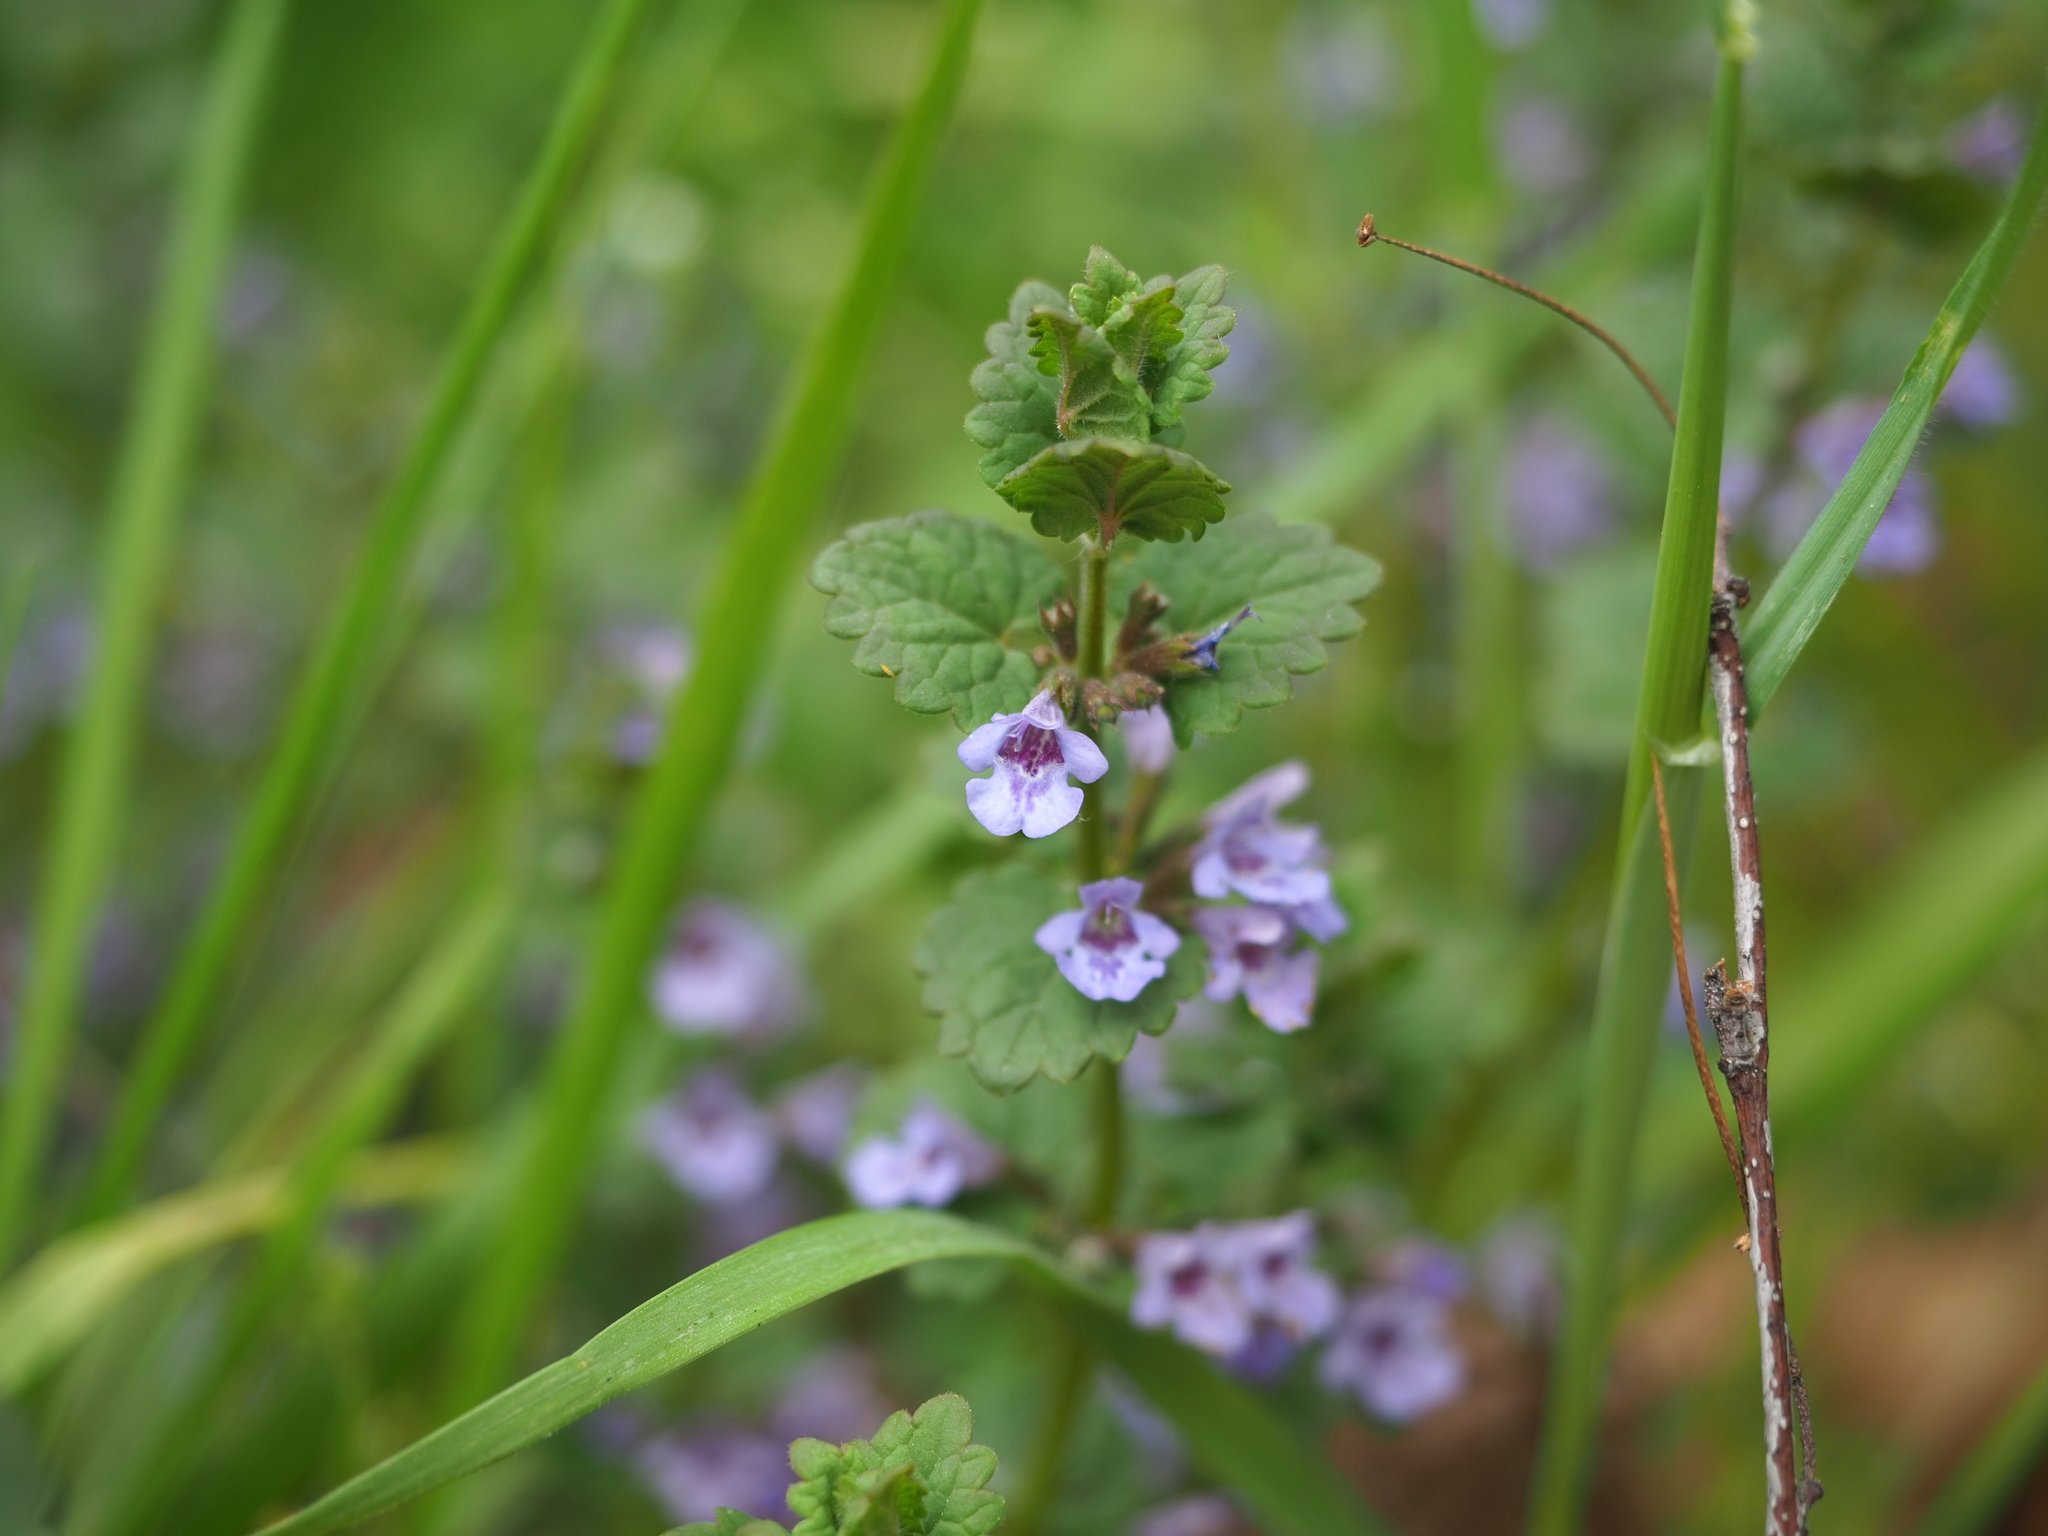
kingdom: Plantae
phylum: Tracheophyta
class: Magnoliopsida
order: Lamiales
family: Lamiaceae
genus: Glechoma
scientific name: Glechoma hederacea
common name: Ground ivy
